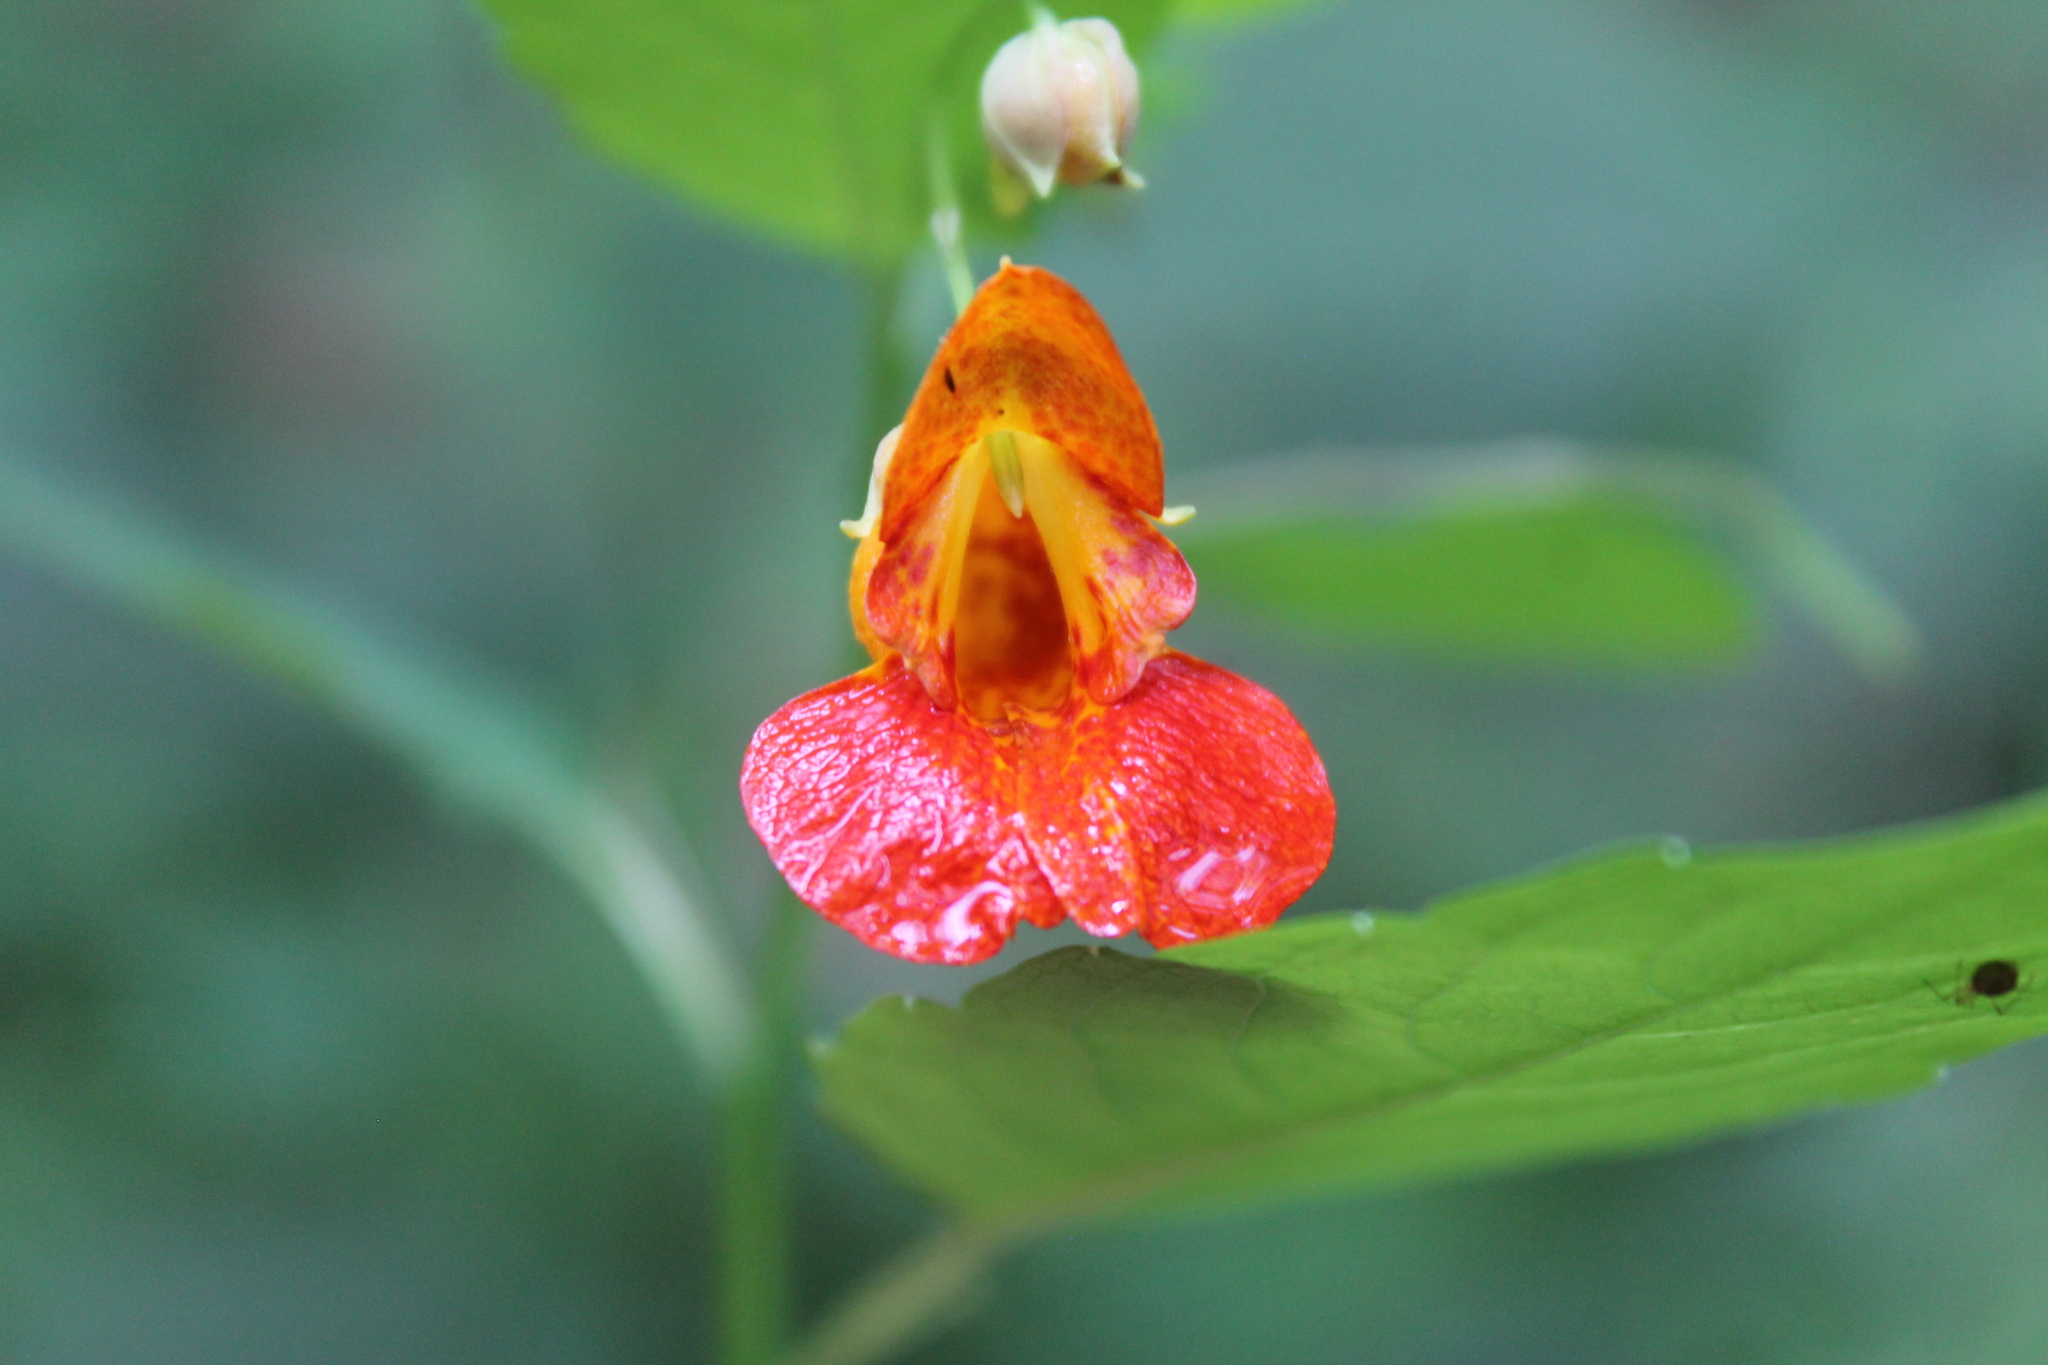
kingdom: Plantae
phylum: Tracheophyta
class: Magnoliopsida
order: Ericales
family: Balsaminaceae
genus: Impatiens
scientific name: Impatiens capensis
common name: Orange balsam
